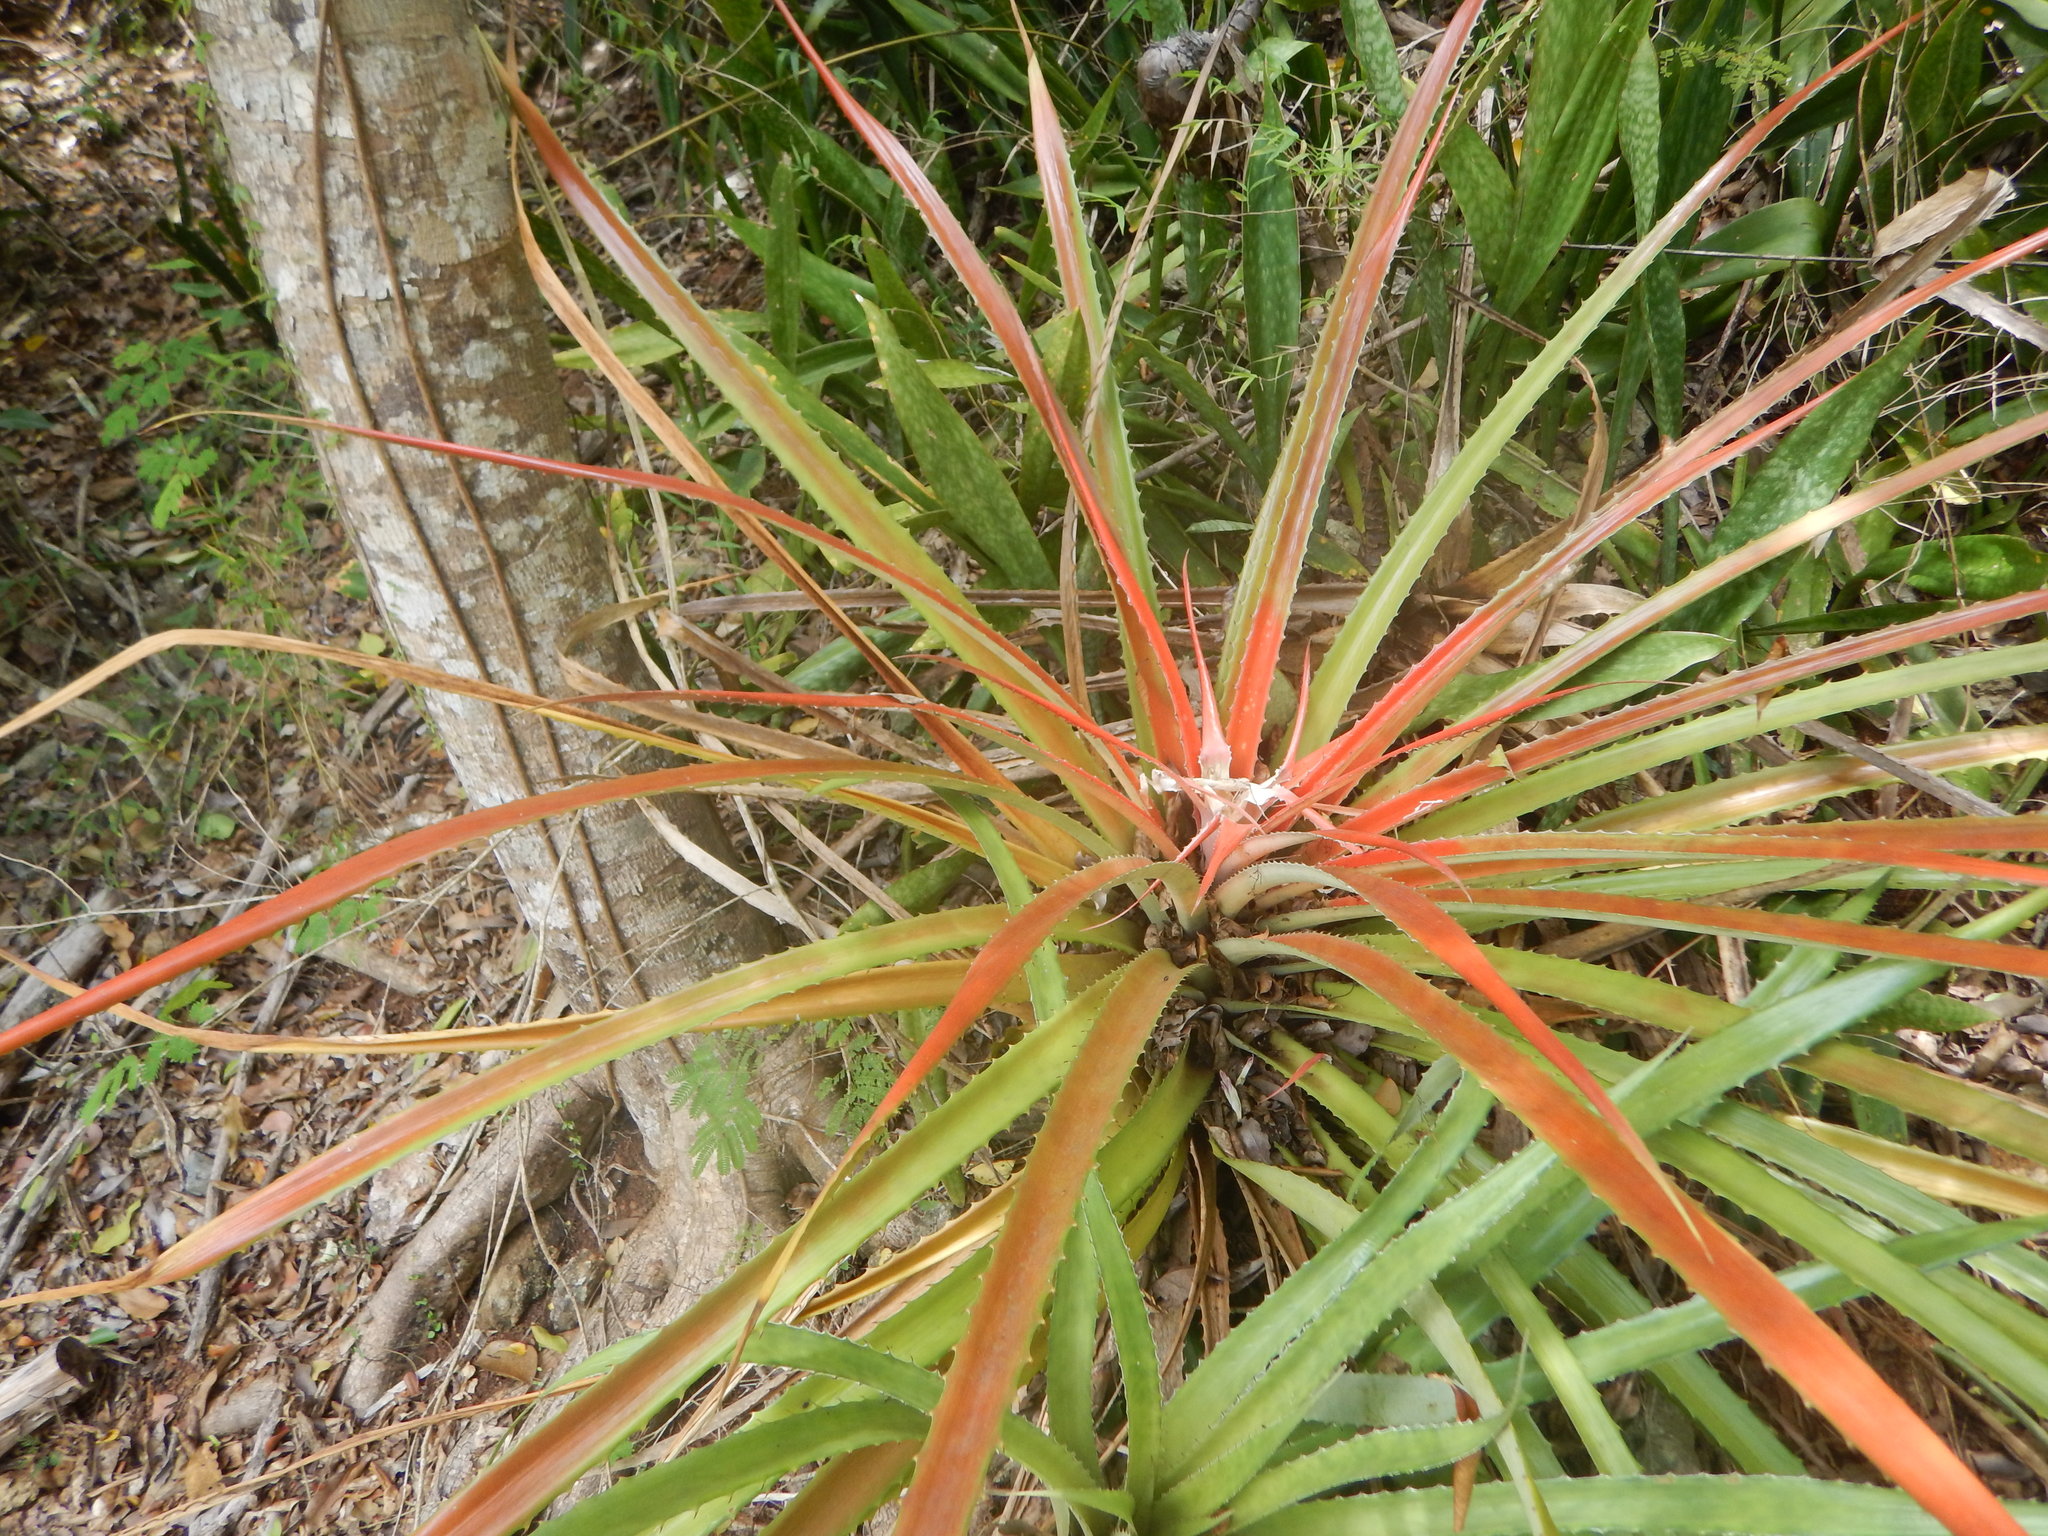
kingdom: Plantae
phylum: Tracheophyta
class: Liliopsida
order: Poales
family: Bromeliaceae
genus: Bromelia
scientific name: Bromelia pinguin
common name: Pinguin
